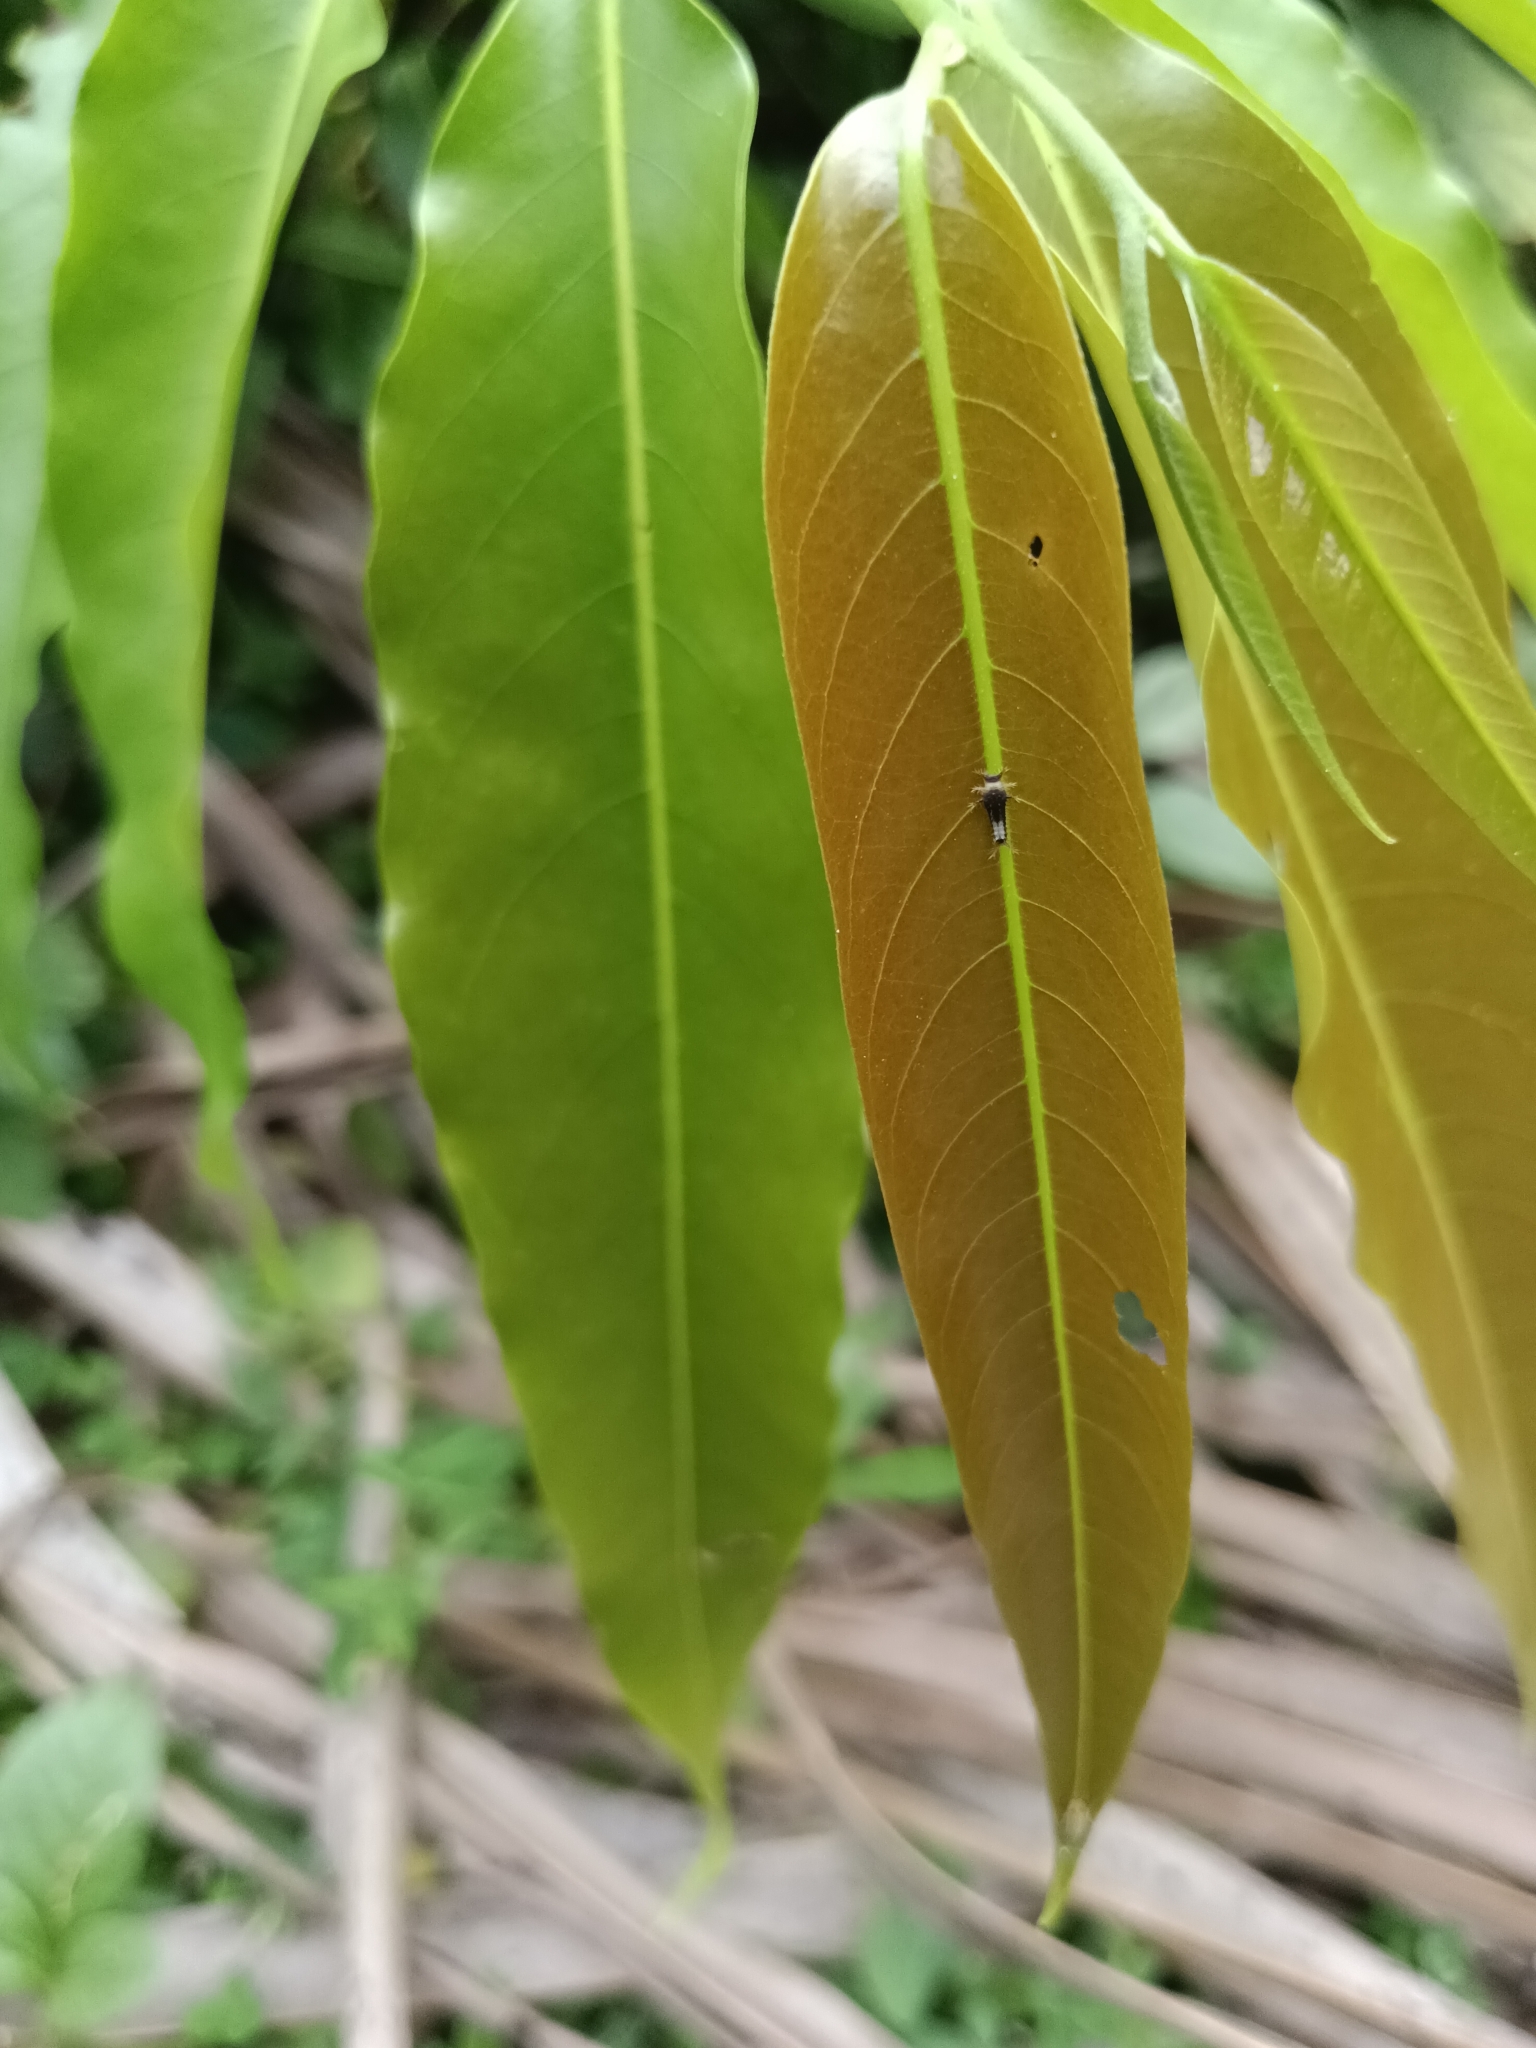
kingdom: Animalia
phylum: Arthropoda
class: Insecta
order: Lepidoptera
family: Papilionidae
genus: Graphium
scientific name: Graphium agamemnon
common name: Tailed jay
